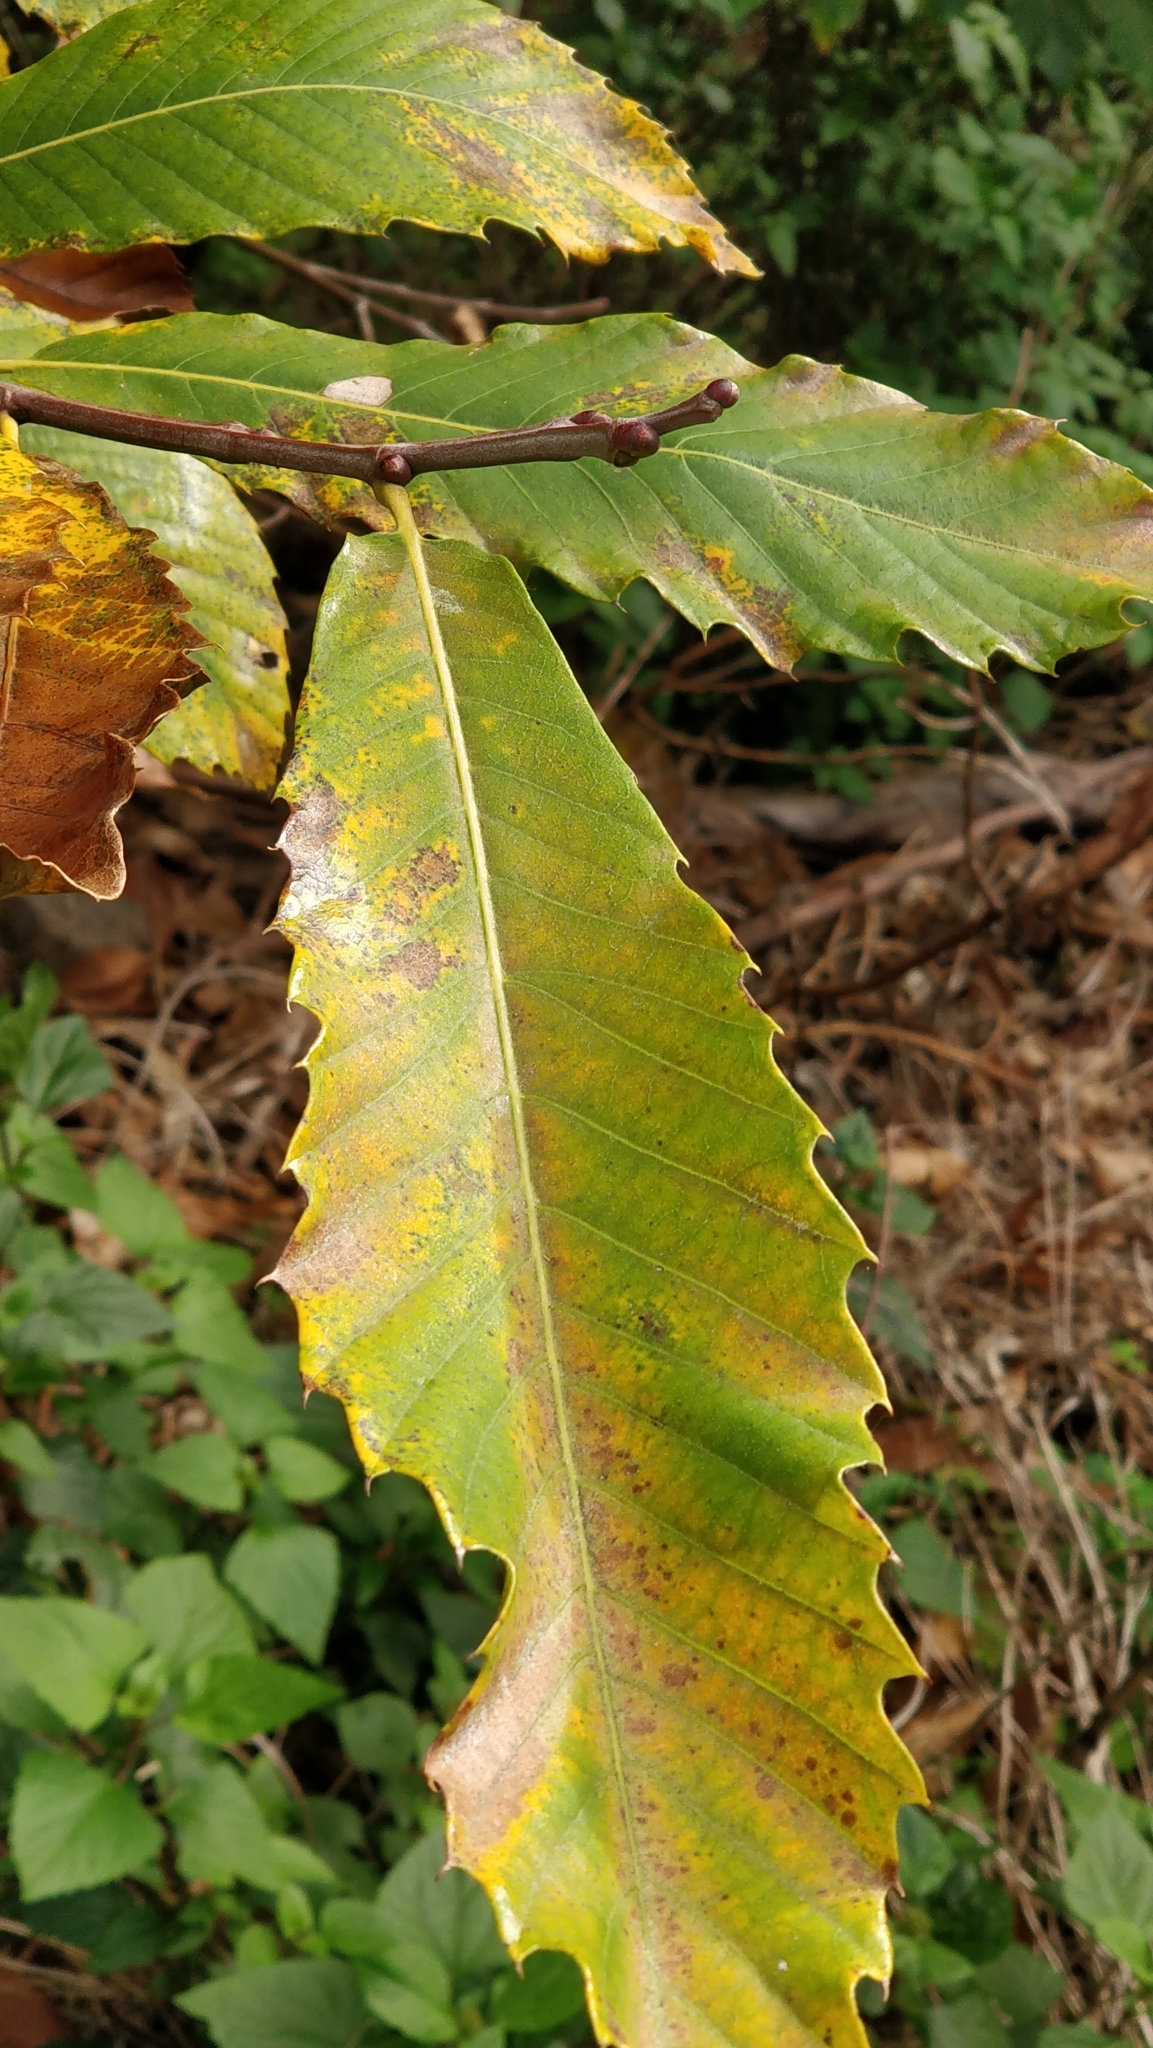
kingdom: Plantae
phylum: Tracheophyta
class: Magnoliopsida
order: Fagales
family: Fagaceae
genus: Castanea
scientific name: Castanea sativa
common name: Sweet chestnut
